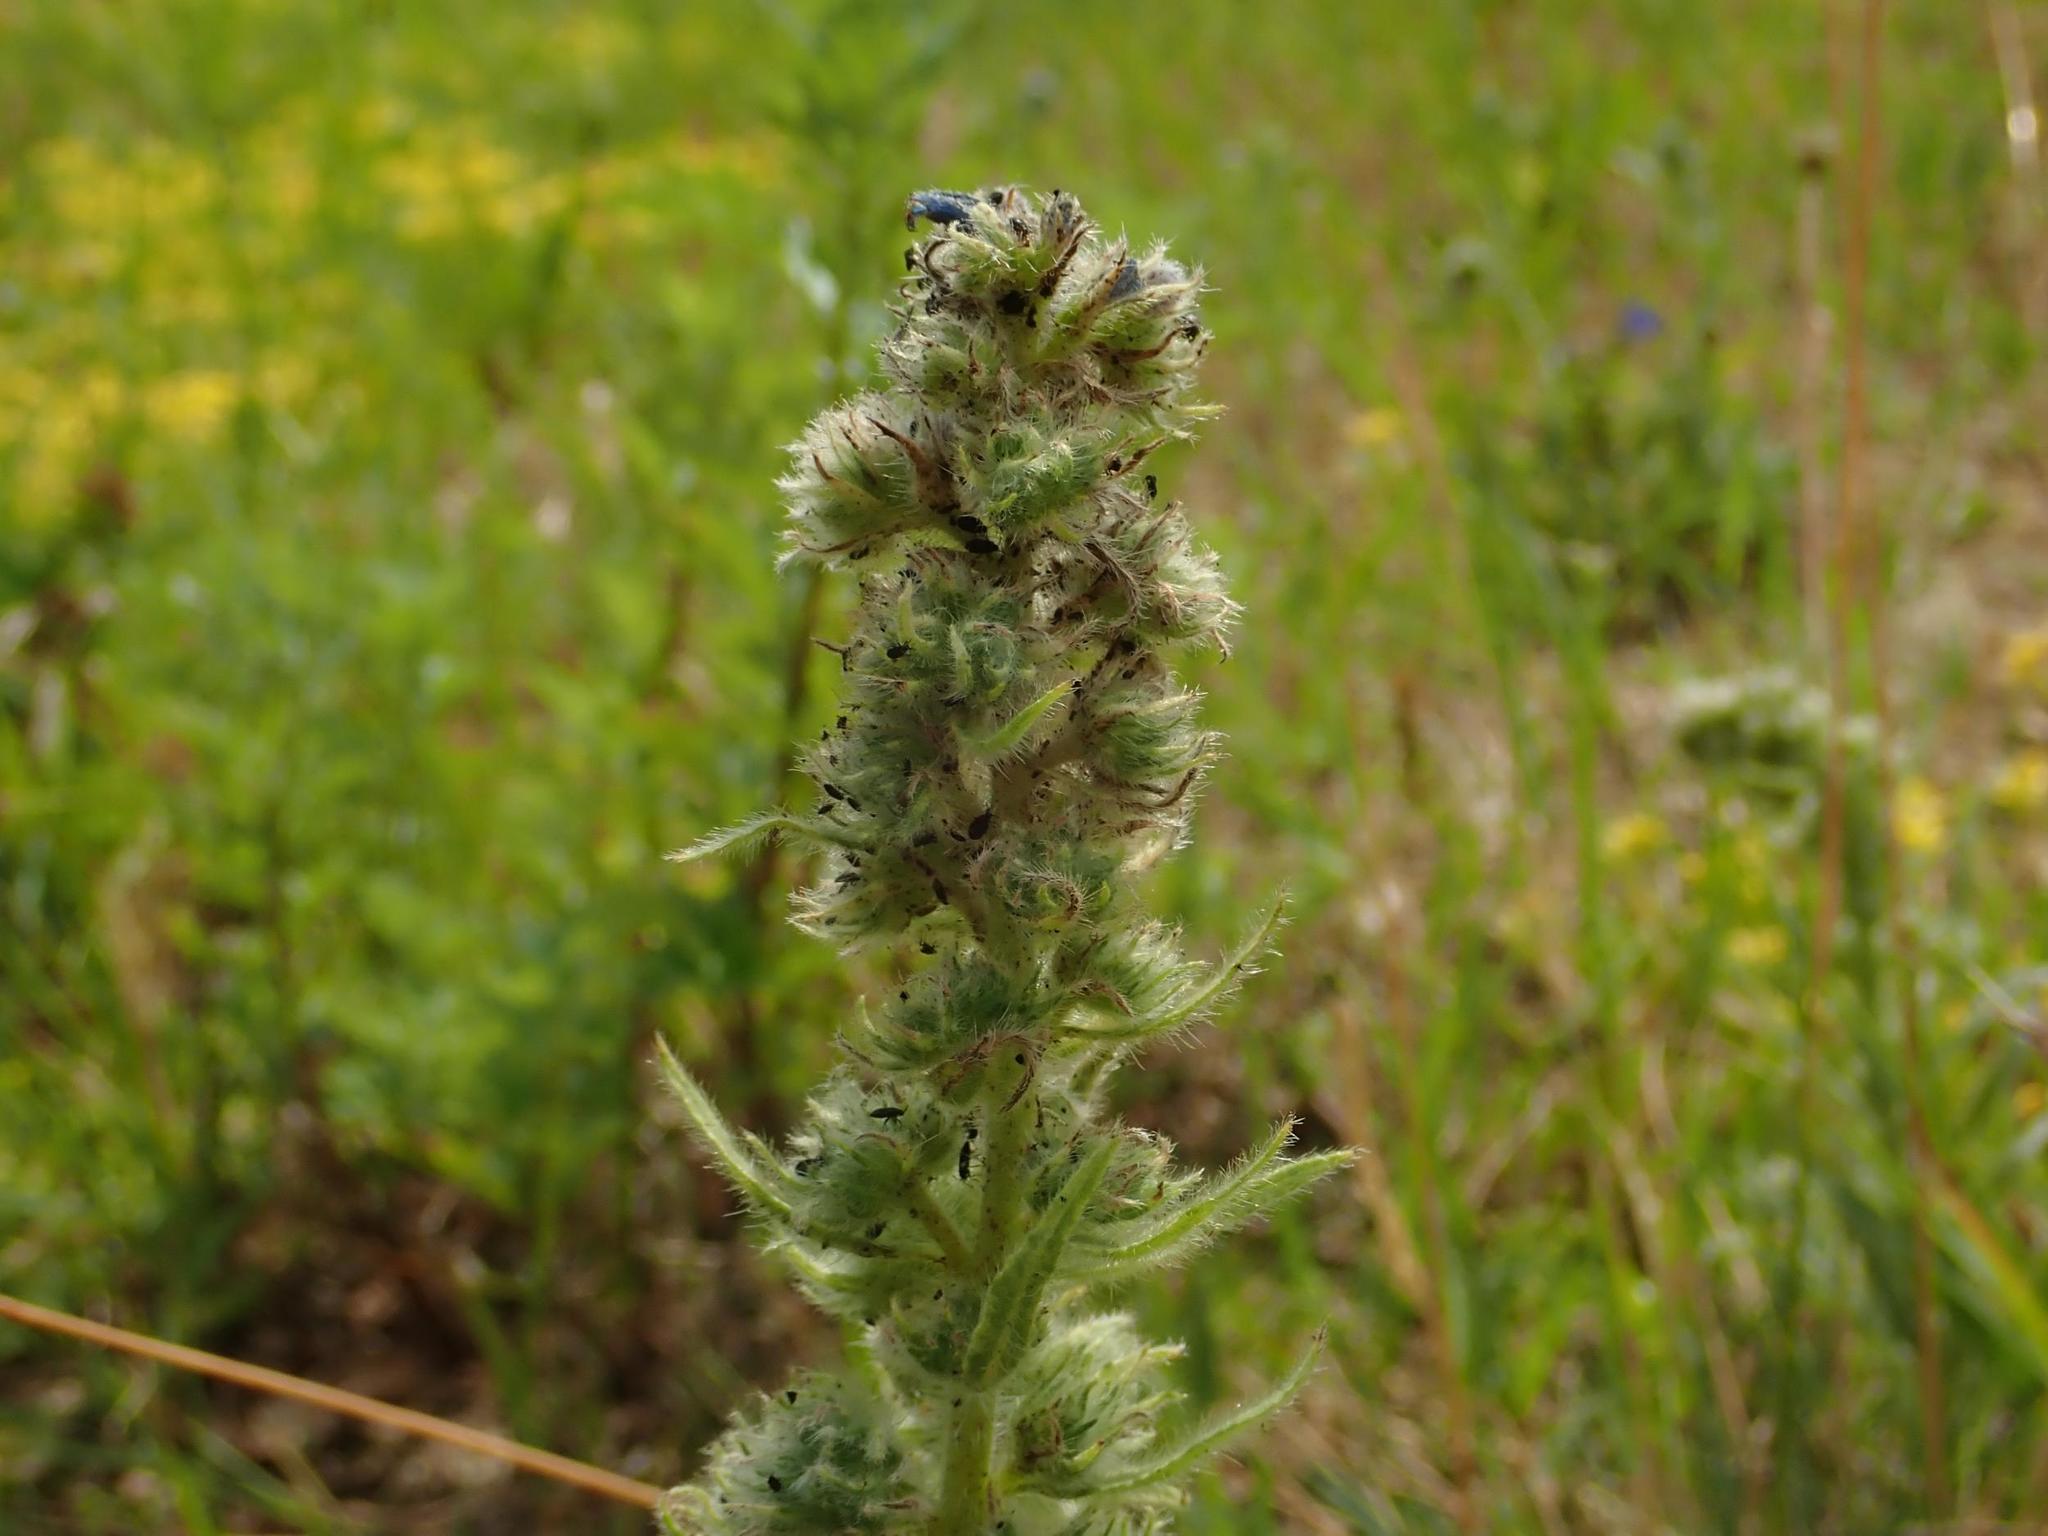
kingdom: Animalia
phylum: Arthropoda
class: Arachnida
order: Trombidiformes
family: Eriophyidae
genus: Aceria
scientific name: Aceria echii
